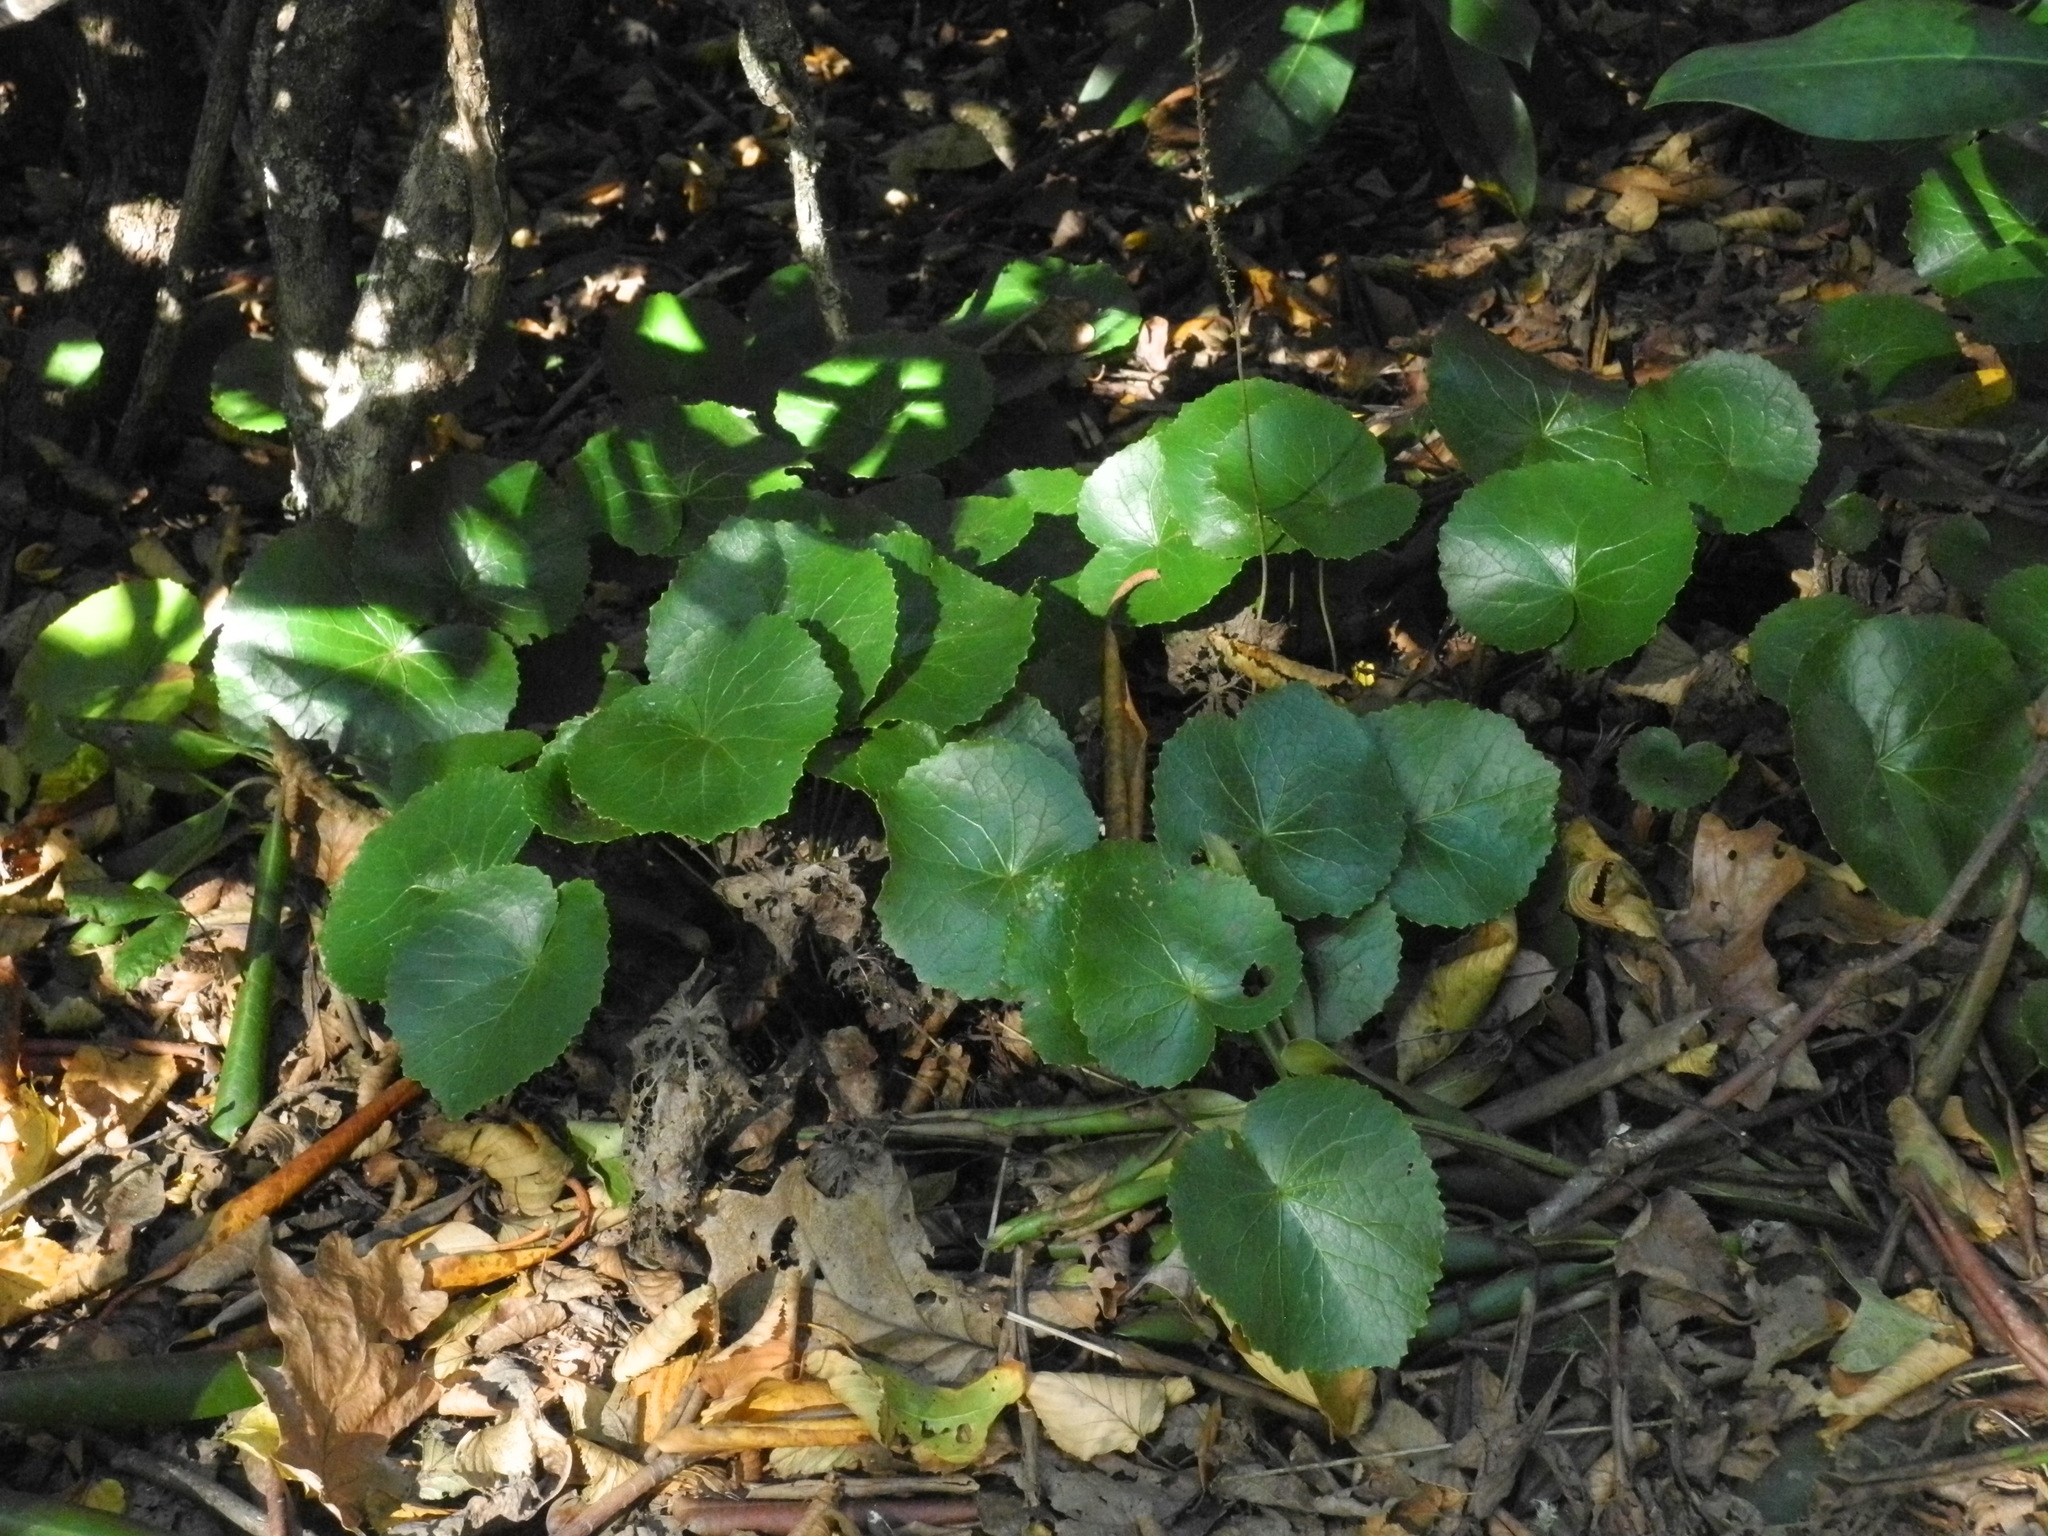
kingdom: Plantae
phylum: Tracheophyta
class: Magnoliopsida
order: Ericales
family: Diapensiaceae
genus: Galax
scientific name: Galax urceolata
